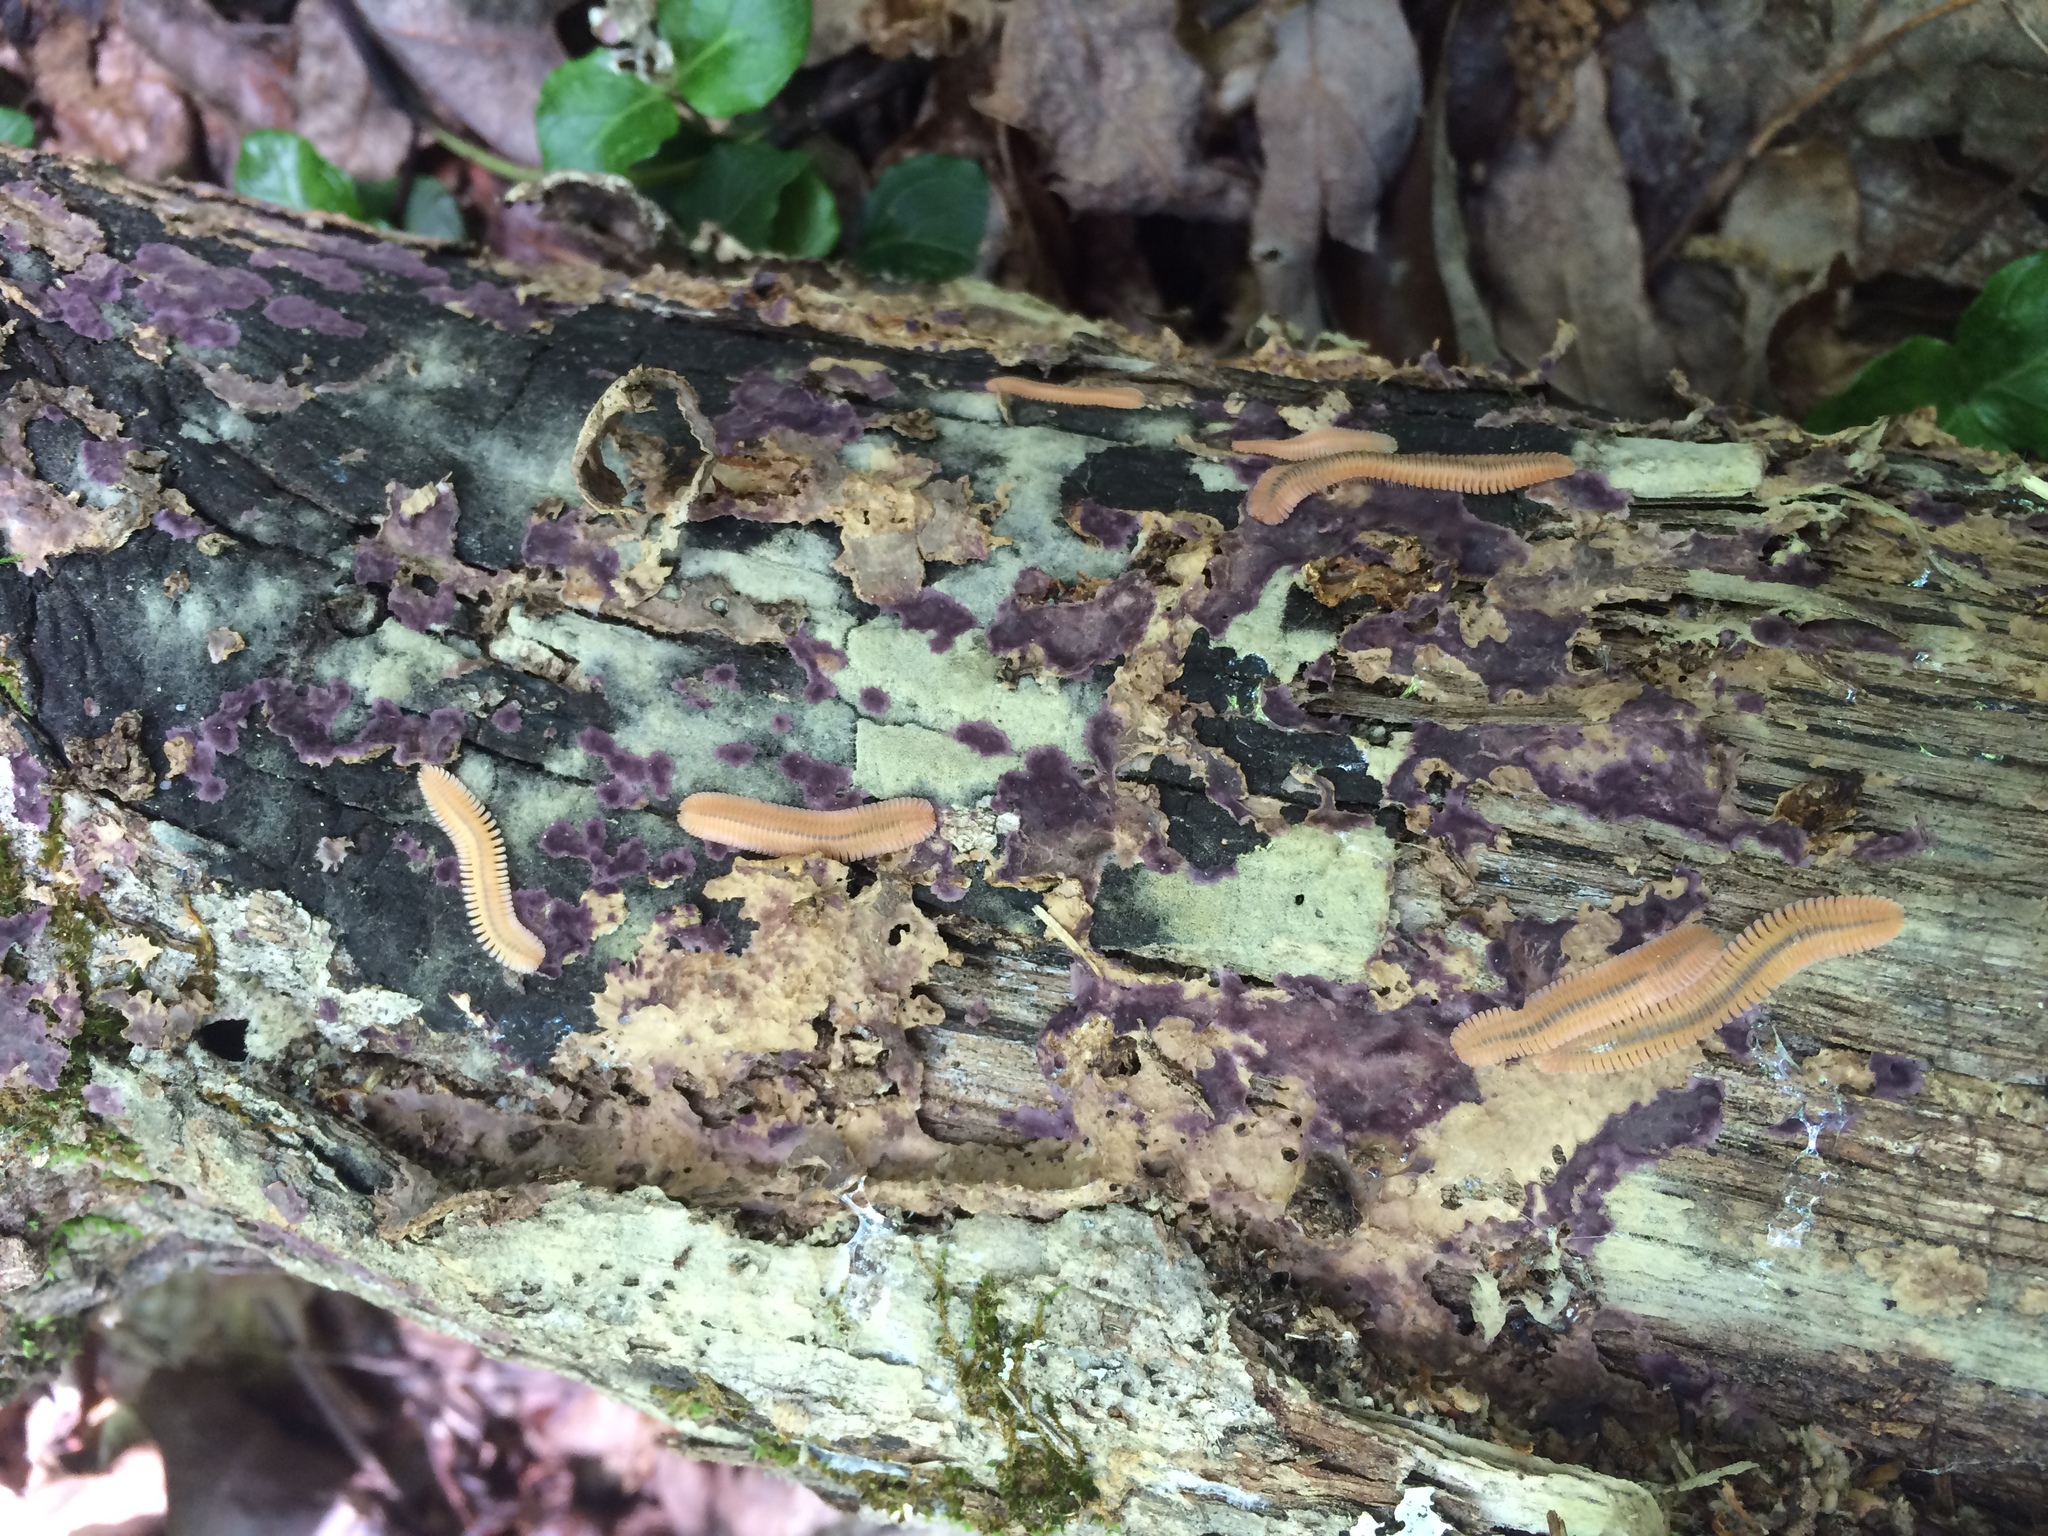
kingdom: Animalia
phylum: Arthropoda
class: Diplopoda
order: Platydesmida
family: Andrognathidae
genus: Brachycybe
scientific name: Brachycybe lecontii
